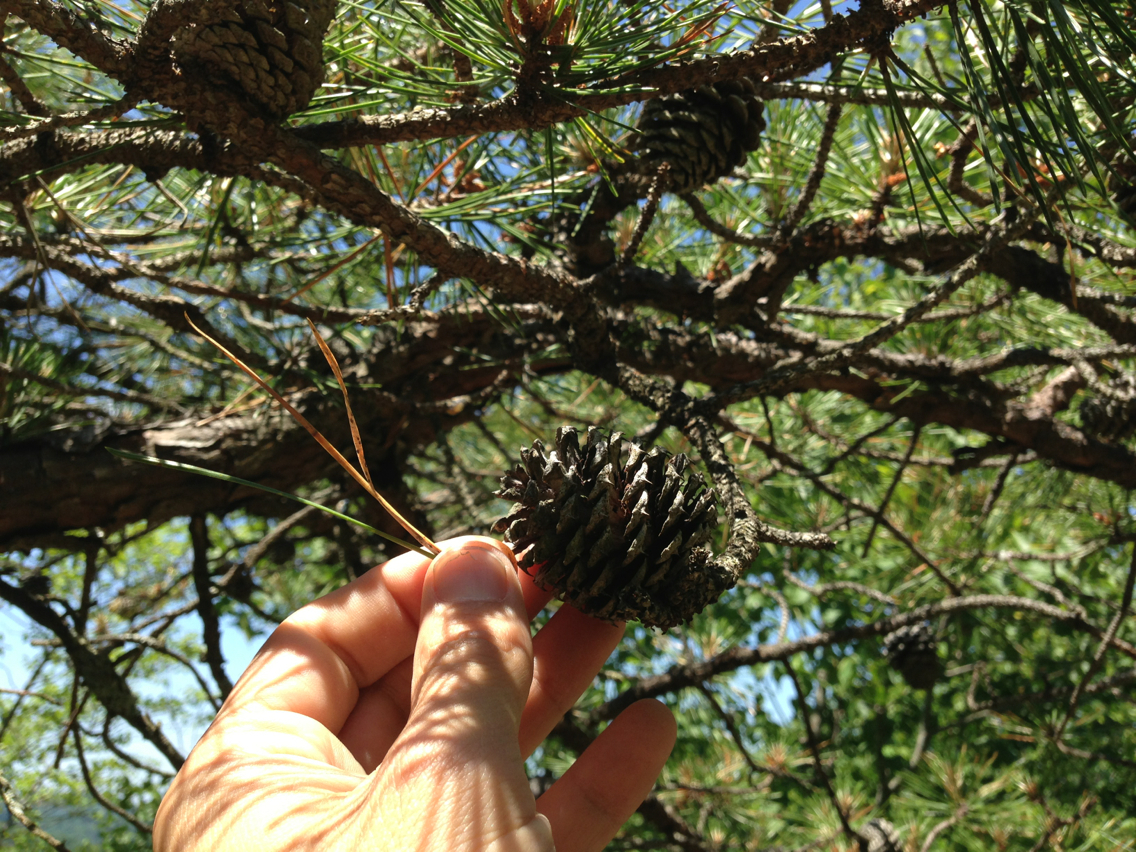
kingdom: Plantae
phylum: Tracheophyta
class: Pinopsida
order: Pinales
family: Pinaceae
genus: Pinus
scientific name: Pinus rigida
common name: Pitch pine
